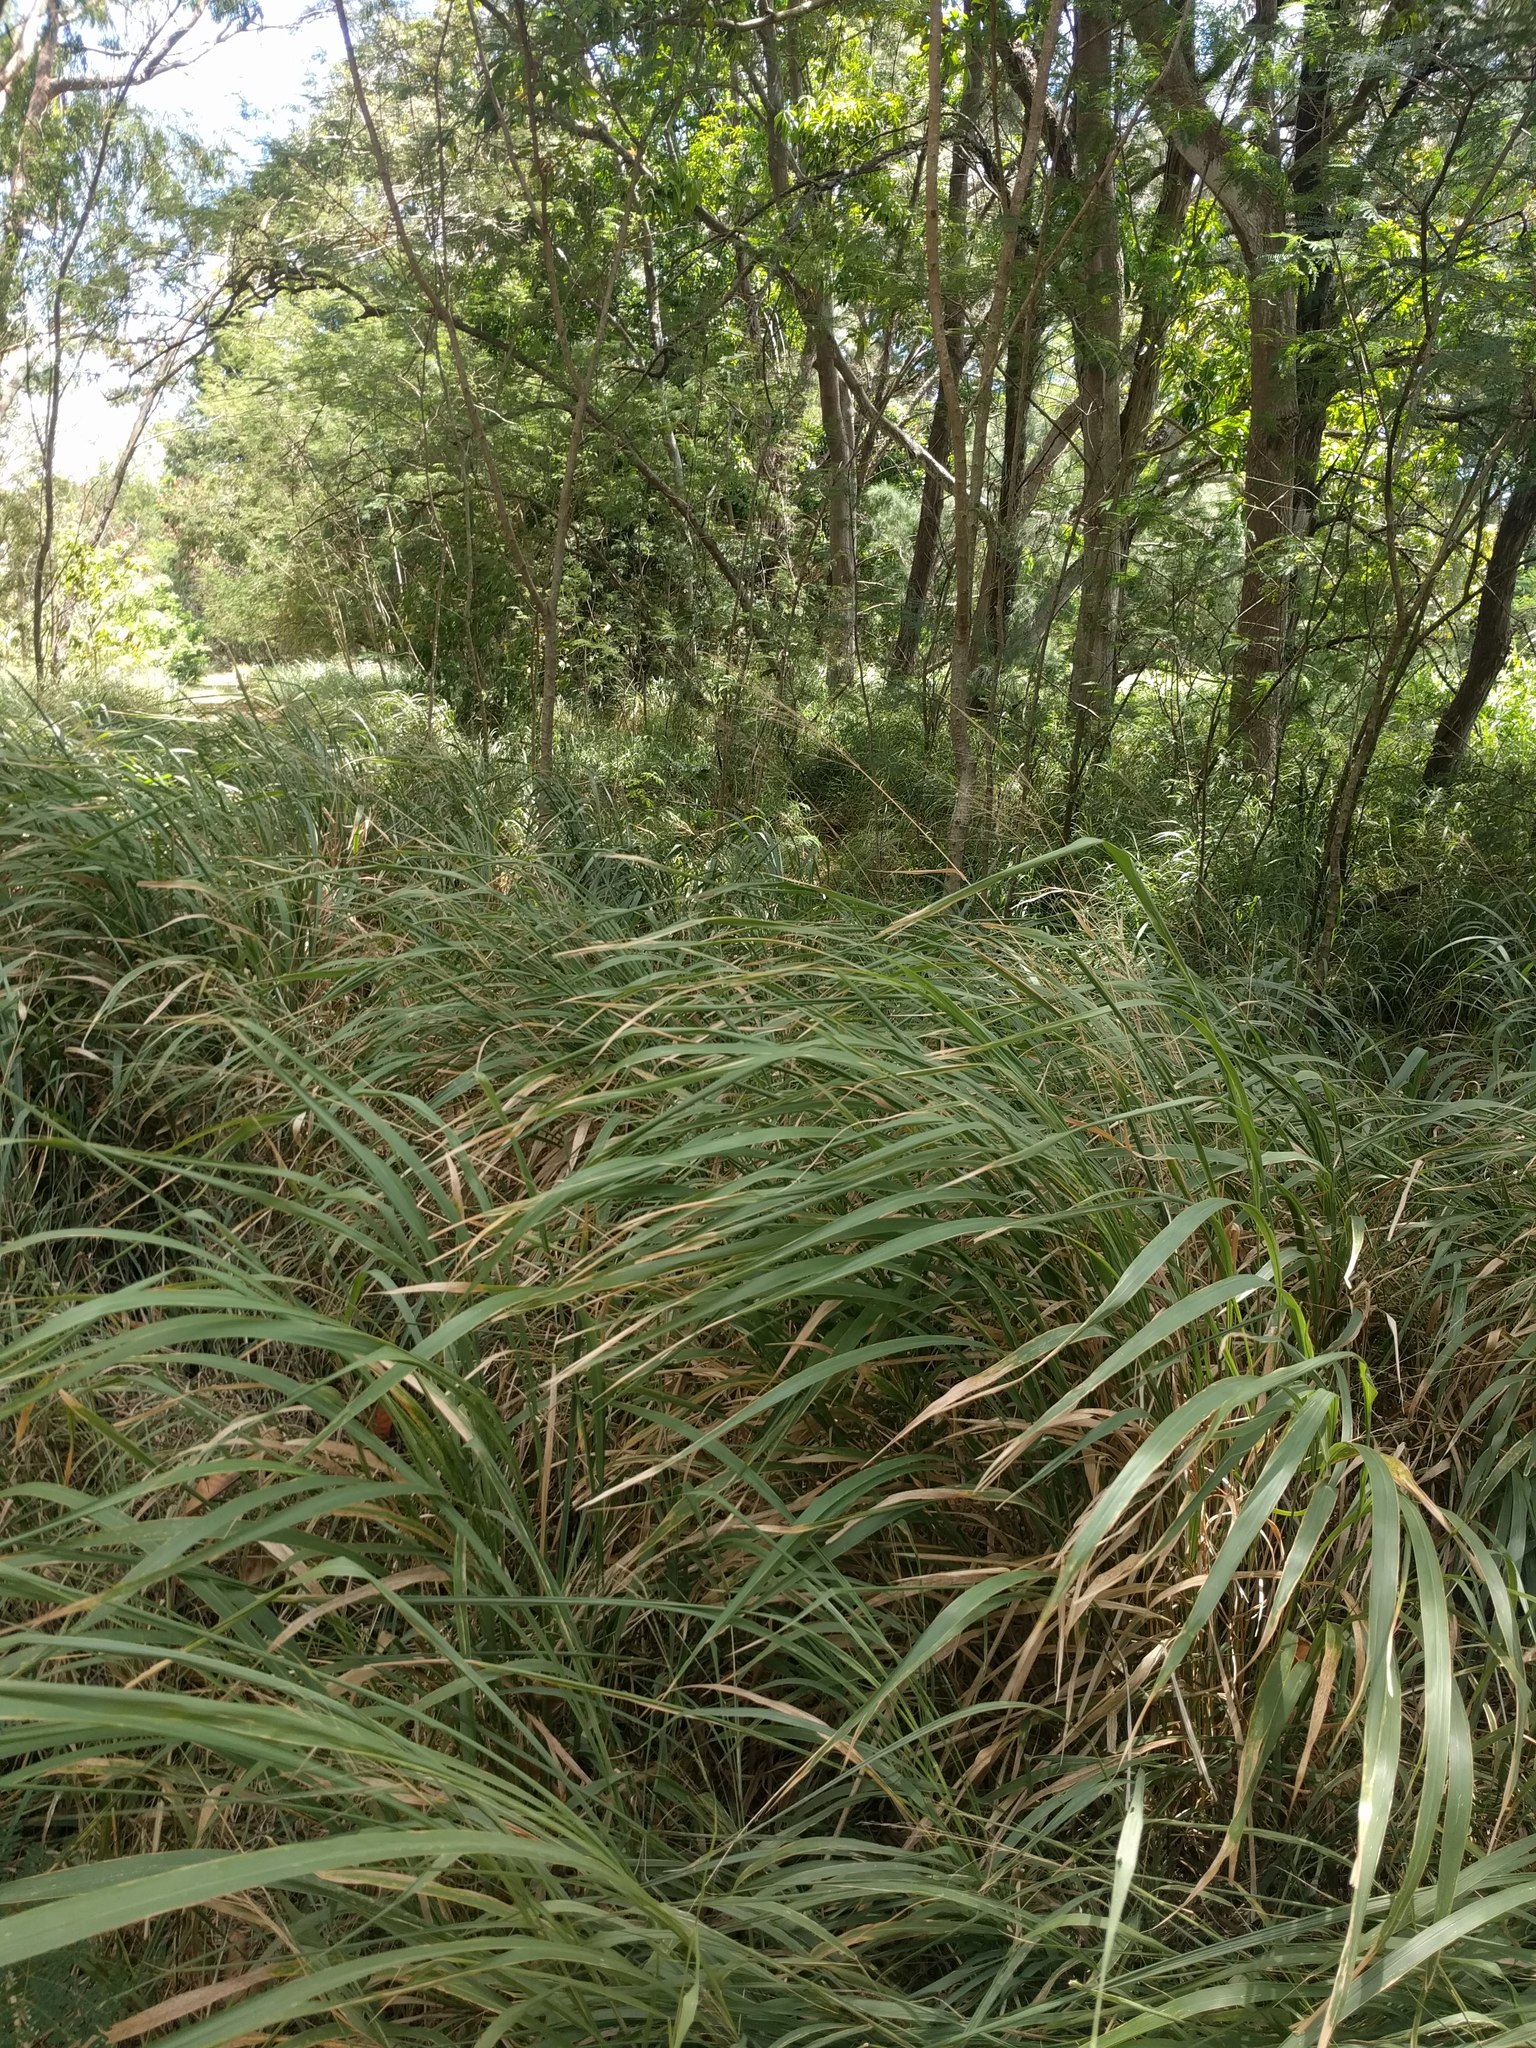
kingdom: Plantae
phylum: Tracheophyta
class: Liliopsida
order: Poales
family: Poaceae
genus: Megathyrsus
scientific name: Megathyrsus maximus
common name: Guineagrass
